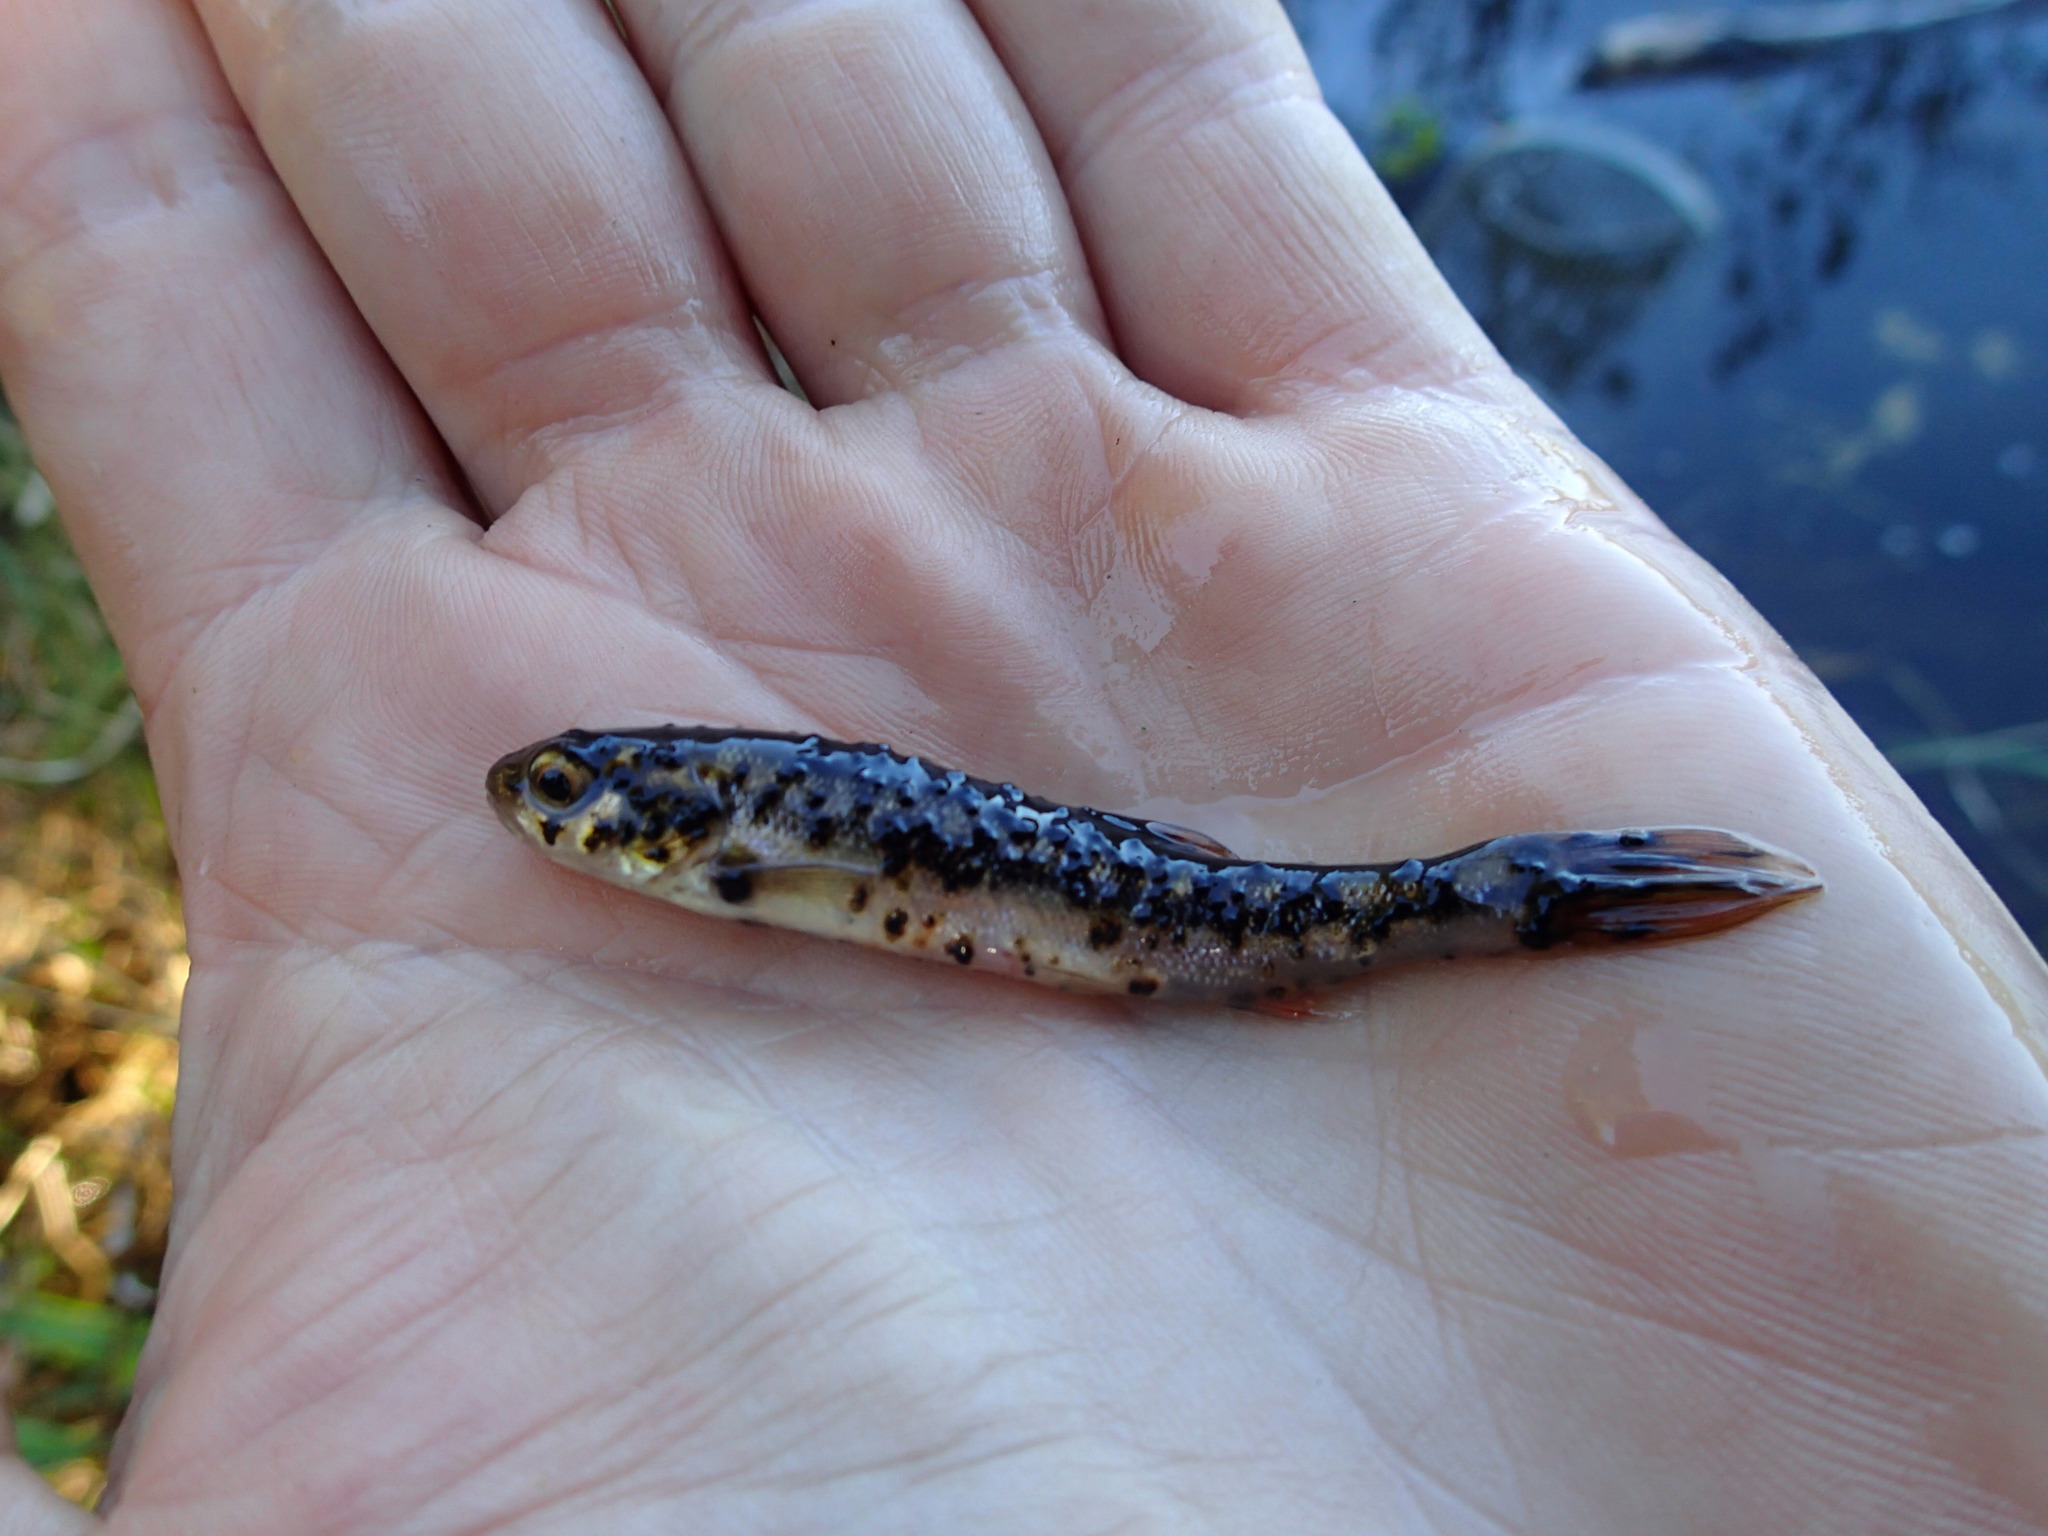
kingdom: Animalia
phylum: Chordata
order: Cypriniformes
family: Cyprinidae
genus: Margariscus
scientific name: Margariscus nachtriebi
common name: Northern pearl dace
